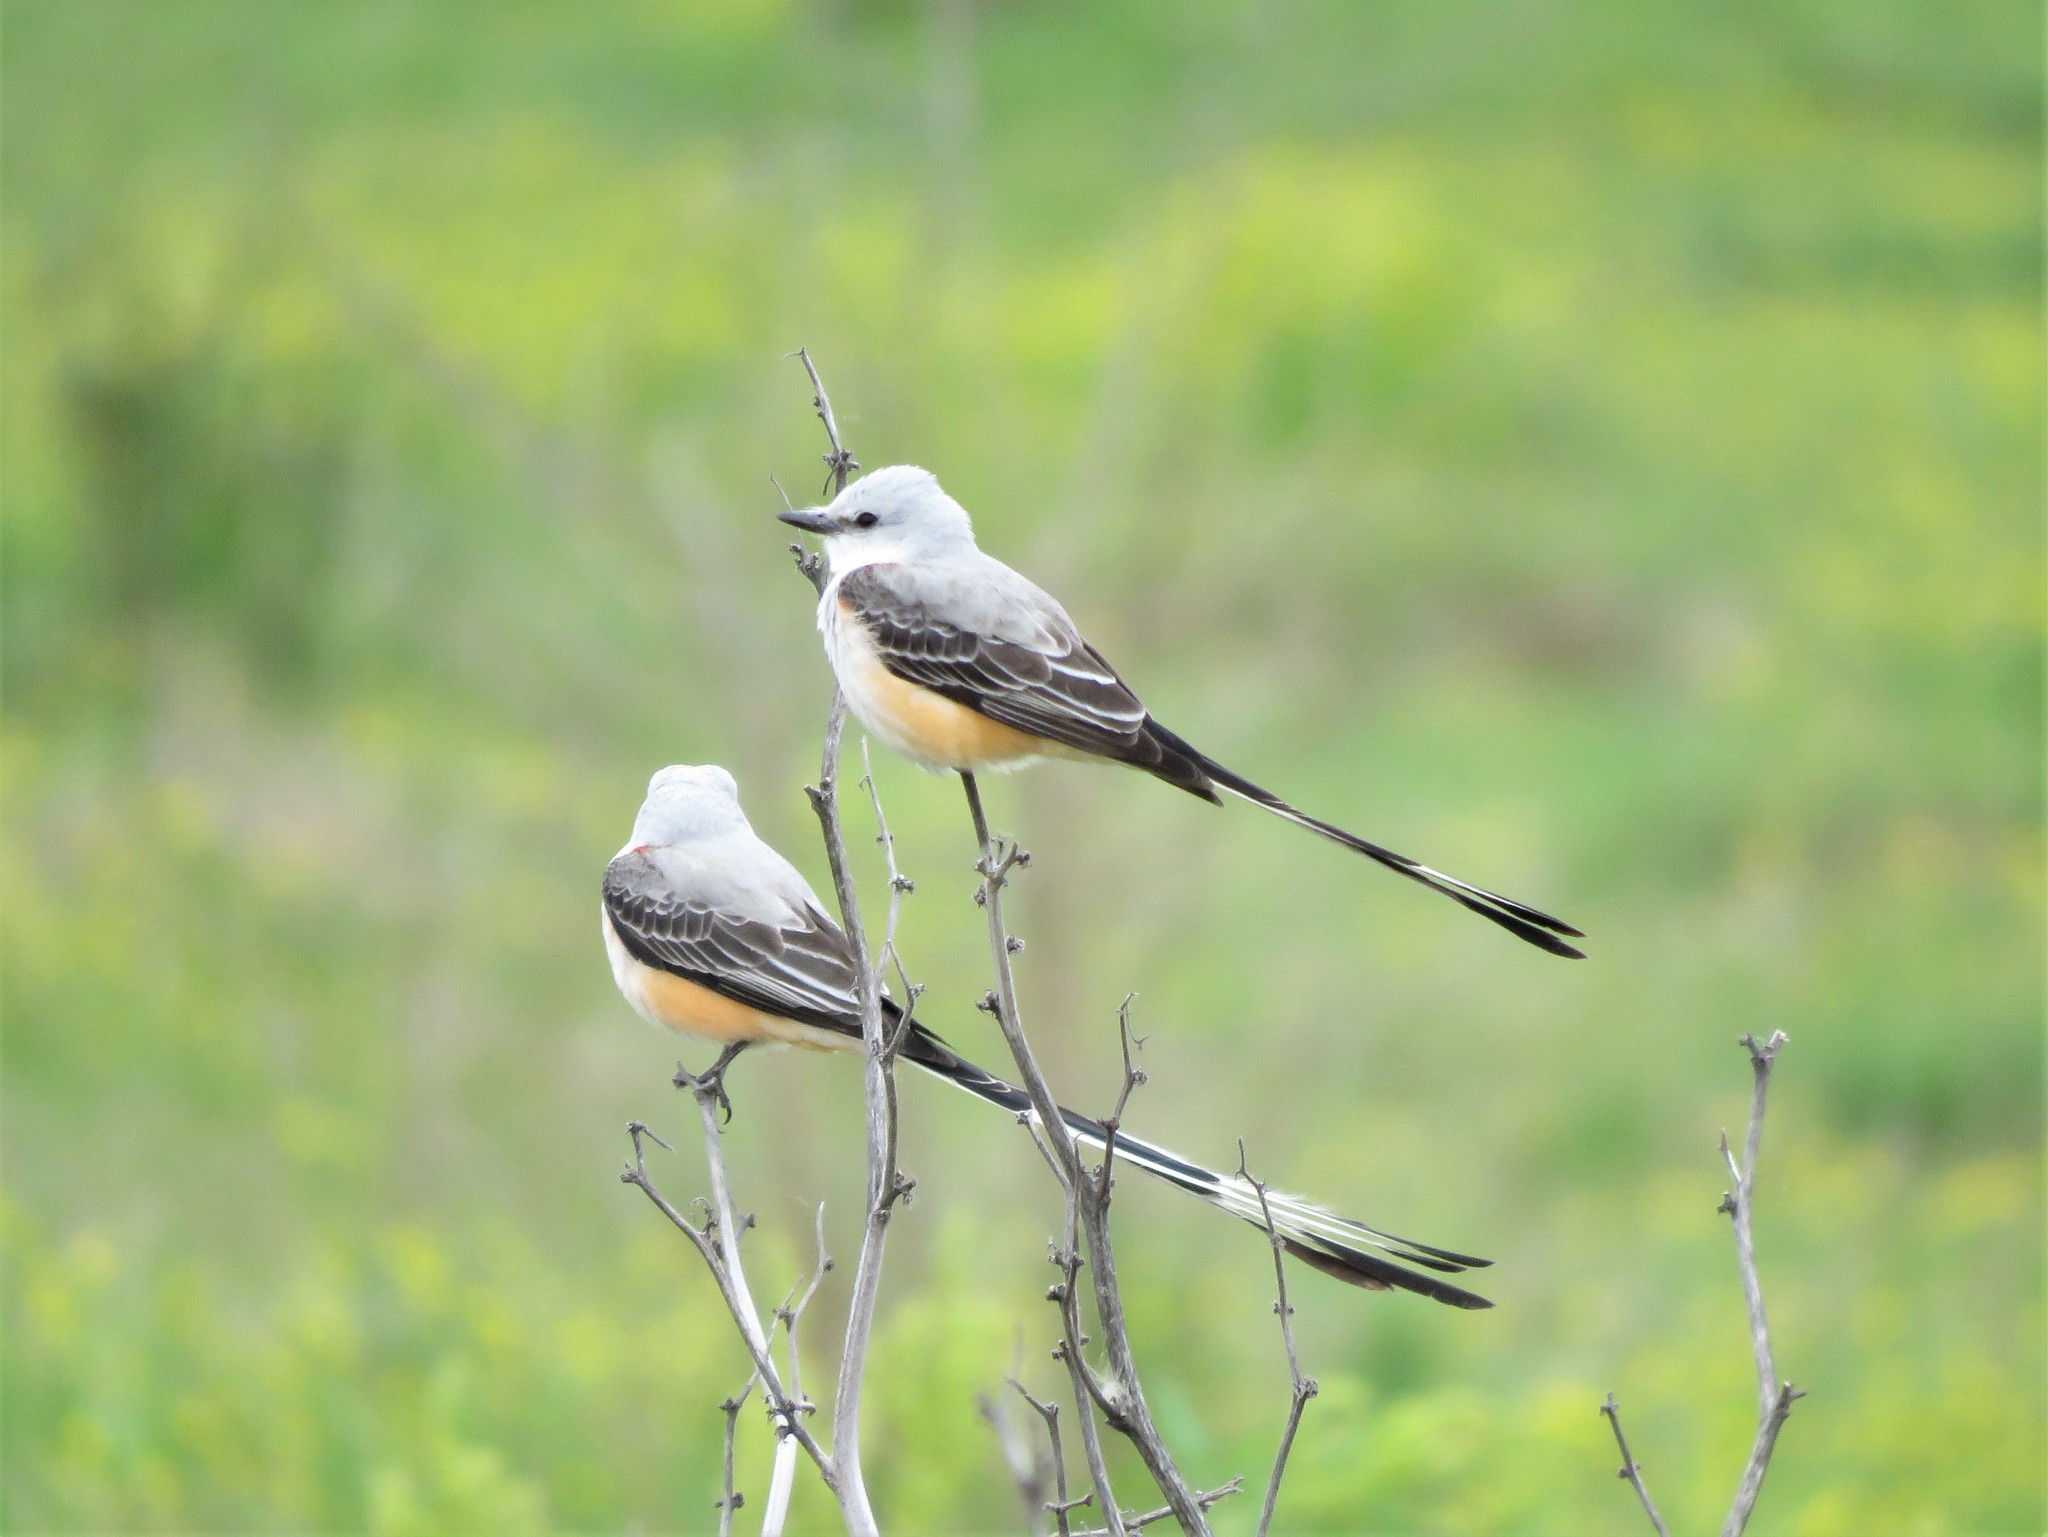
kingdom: Animalia
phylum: Chordata
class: Aves
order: Passeriformes
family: Tyrannidae
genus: Tyrannus
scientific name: Tyrannus forficatus
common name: Scissor-tailed flycatcher
